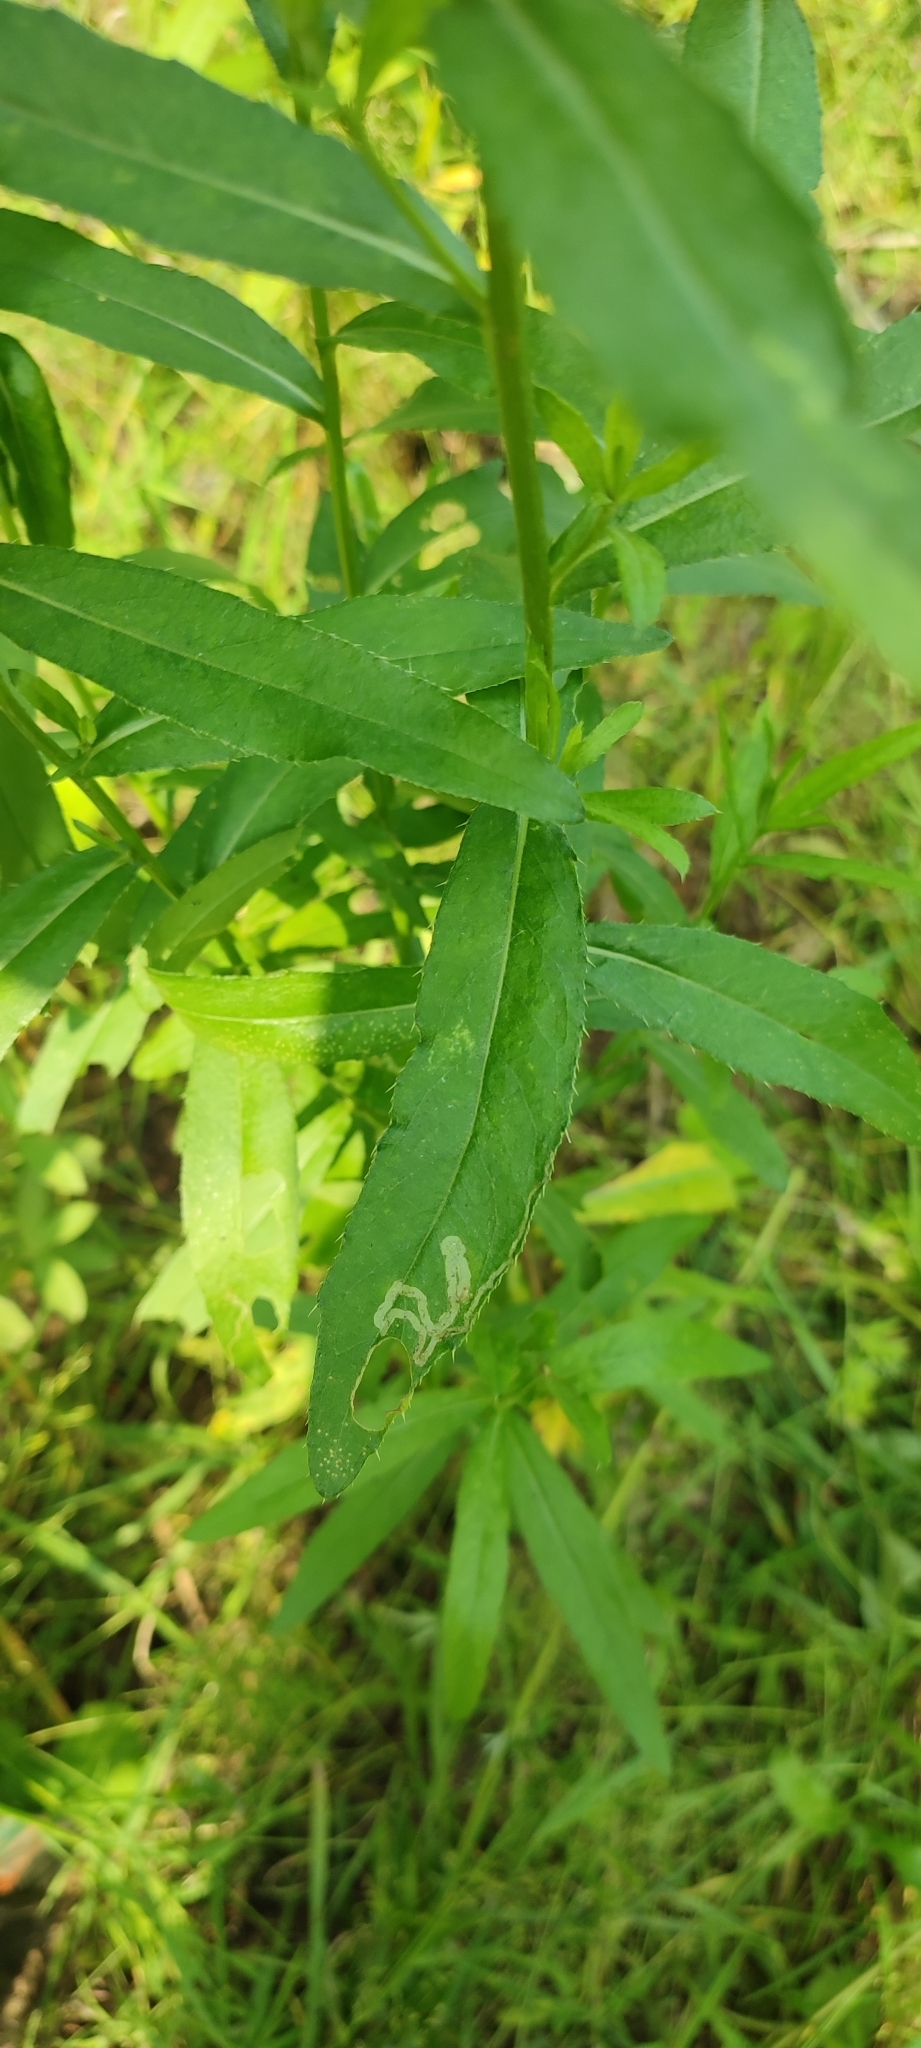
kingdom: Plantae
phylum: Tracheophyta
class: Magnoliopsida
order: Asterales
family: Asteraceae
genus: Cirsium
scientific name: Cirsium arvense
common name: Creeping thistle
